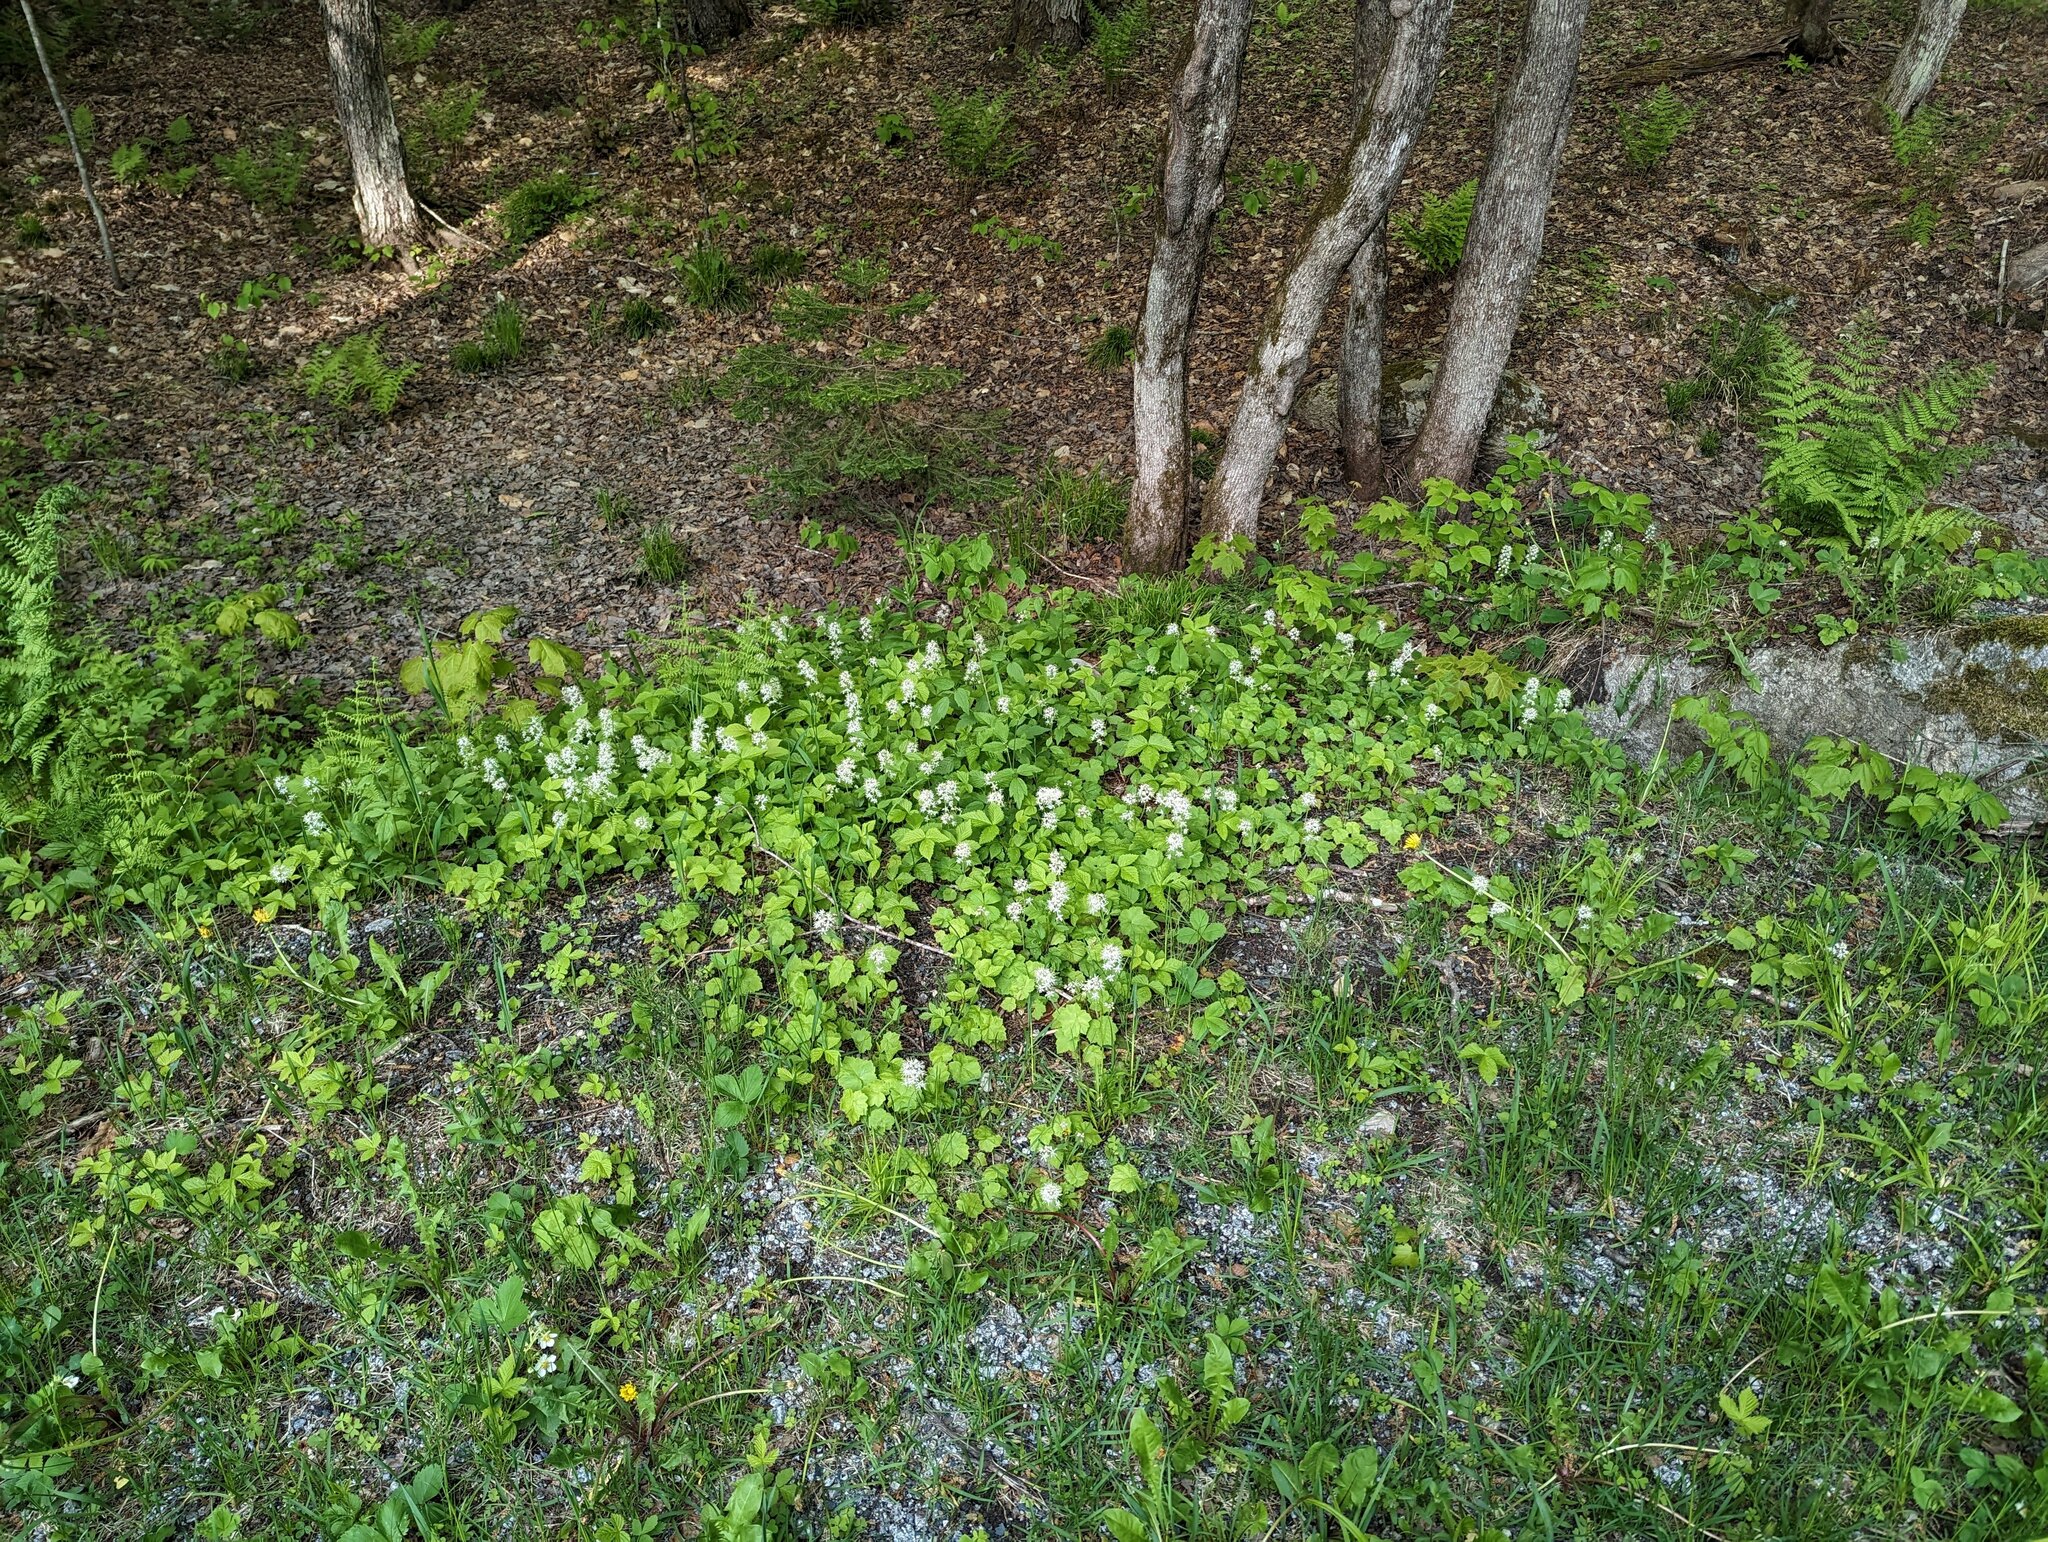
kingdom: Plantae
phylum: Tracheophyta
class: Magnoliopsida
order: Saxifragales
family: Saxifragaceae
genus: Tiarella
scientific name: Tiarella stolonifera
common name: Stoloniferous foamflower
